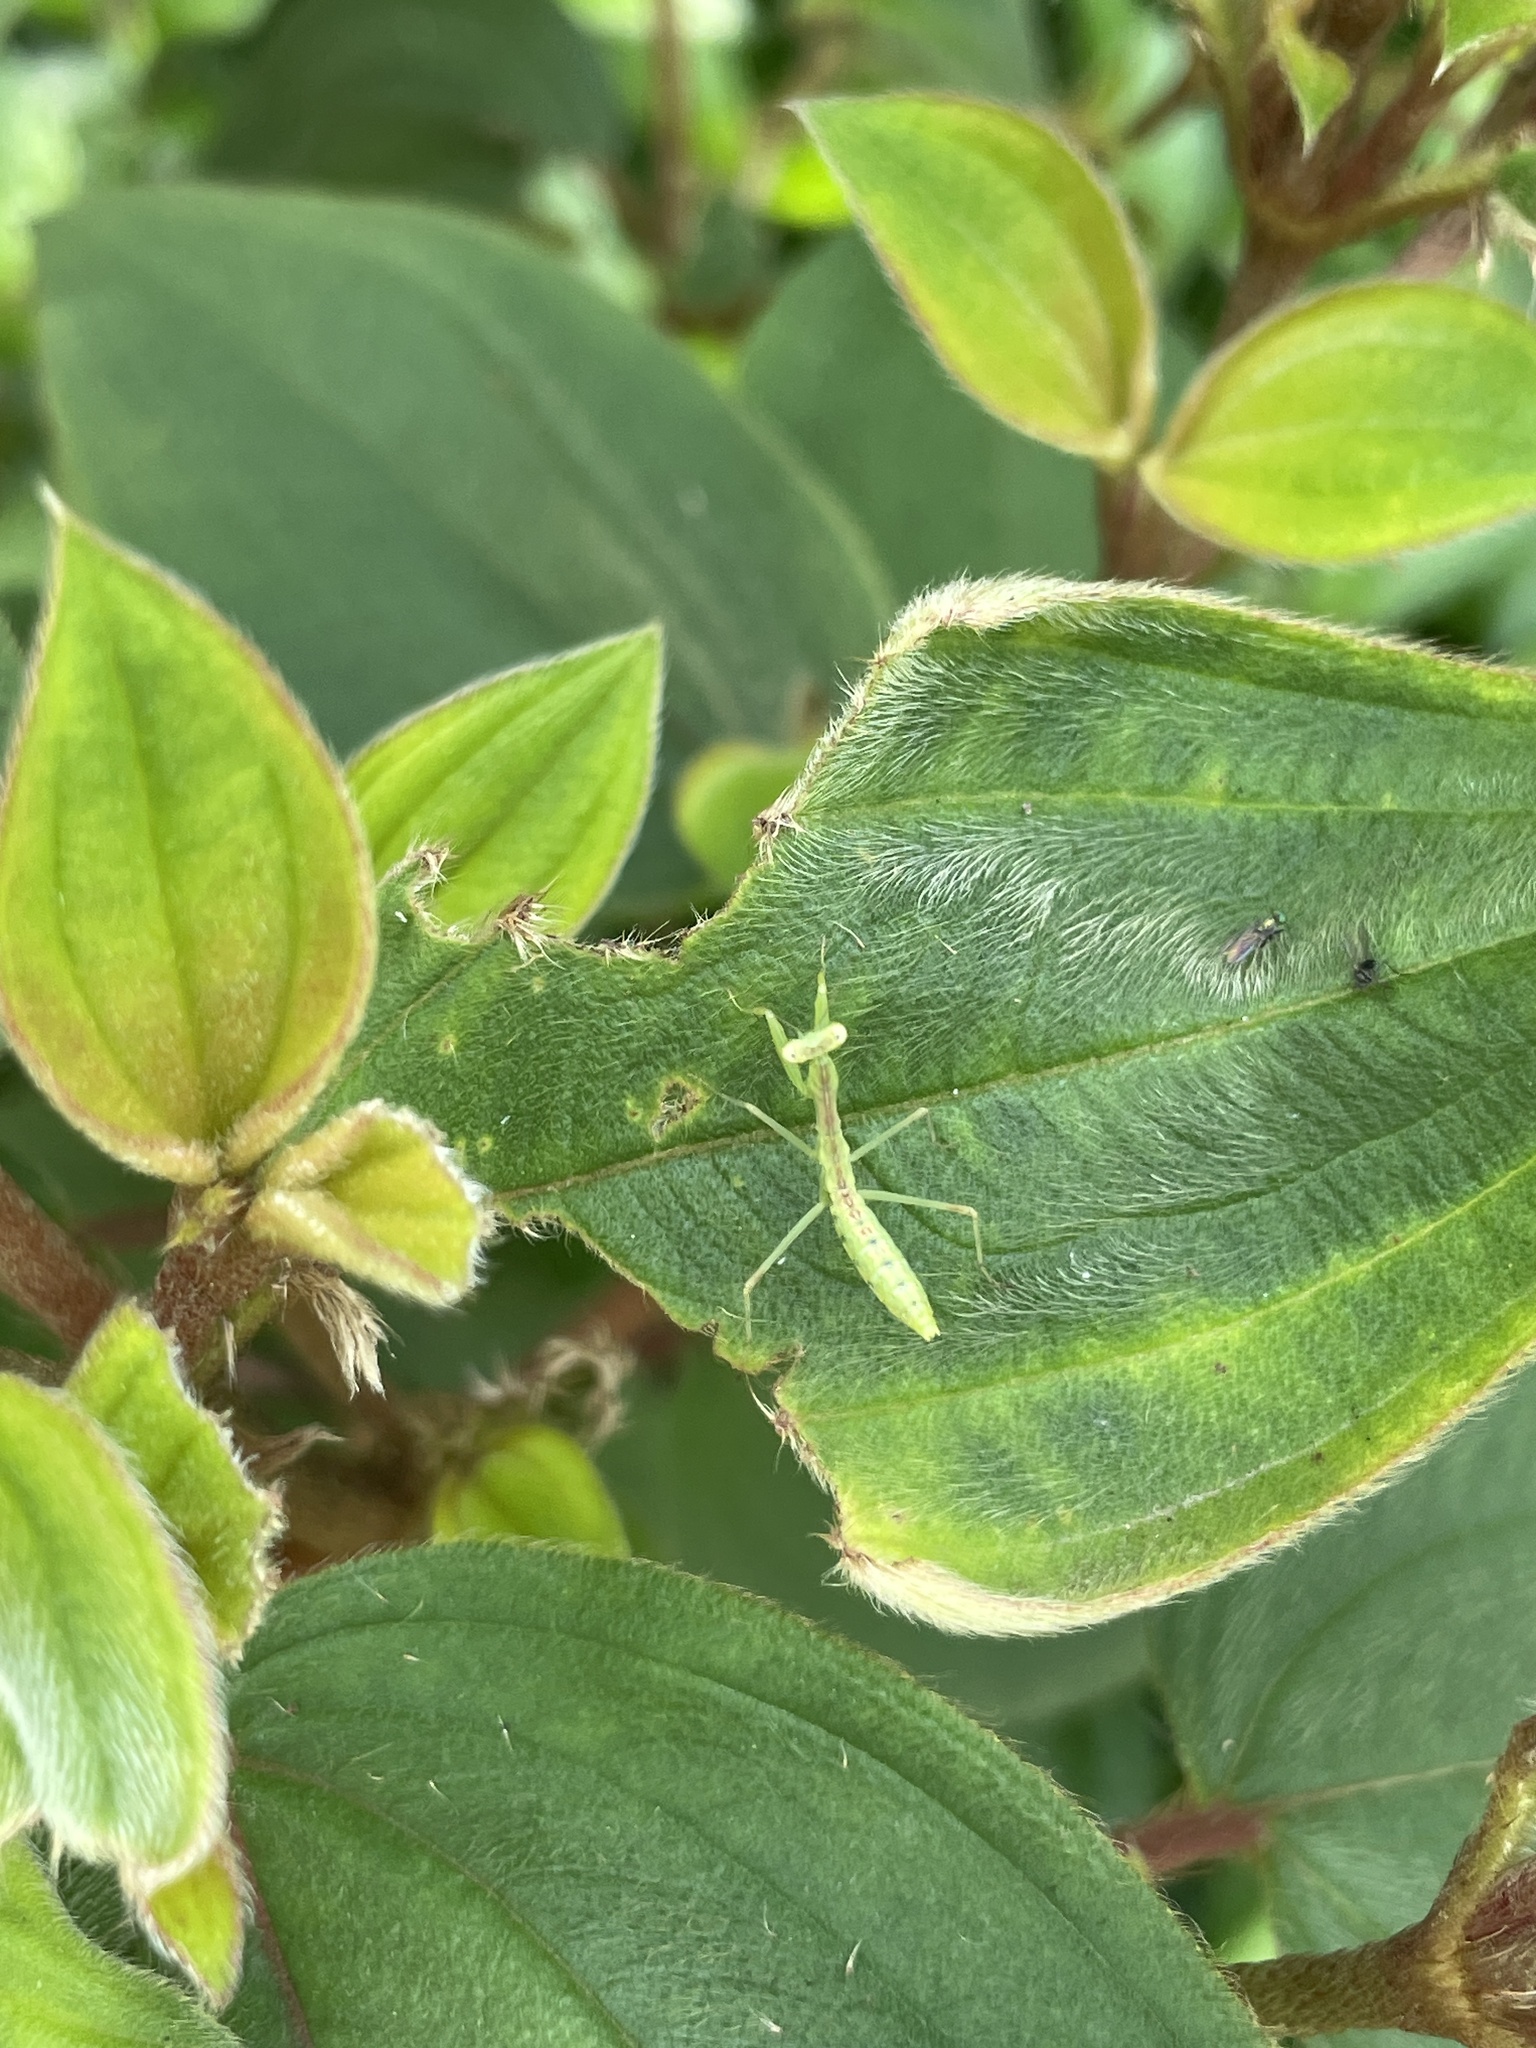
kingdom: Animalia
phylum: Arthropoda
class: Insecta
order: Mantodea
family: Mantidae
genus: Hierodula
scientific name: Hierodula patellifera
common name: Asian mantis
